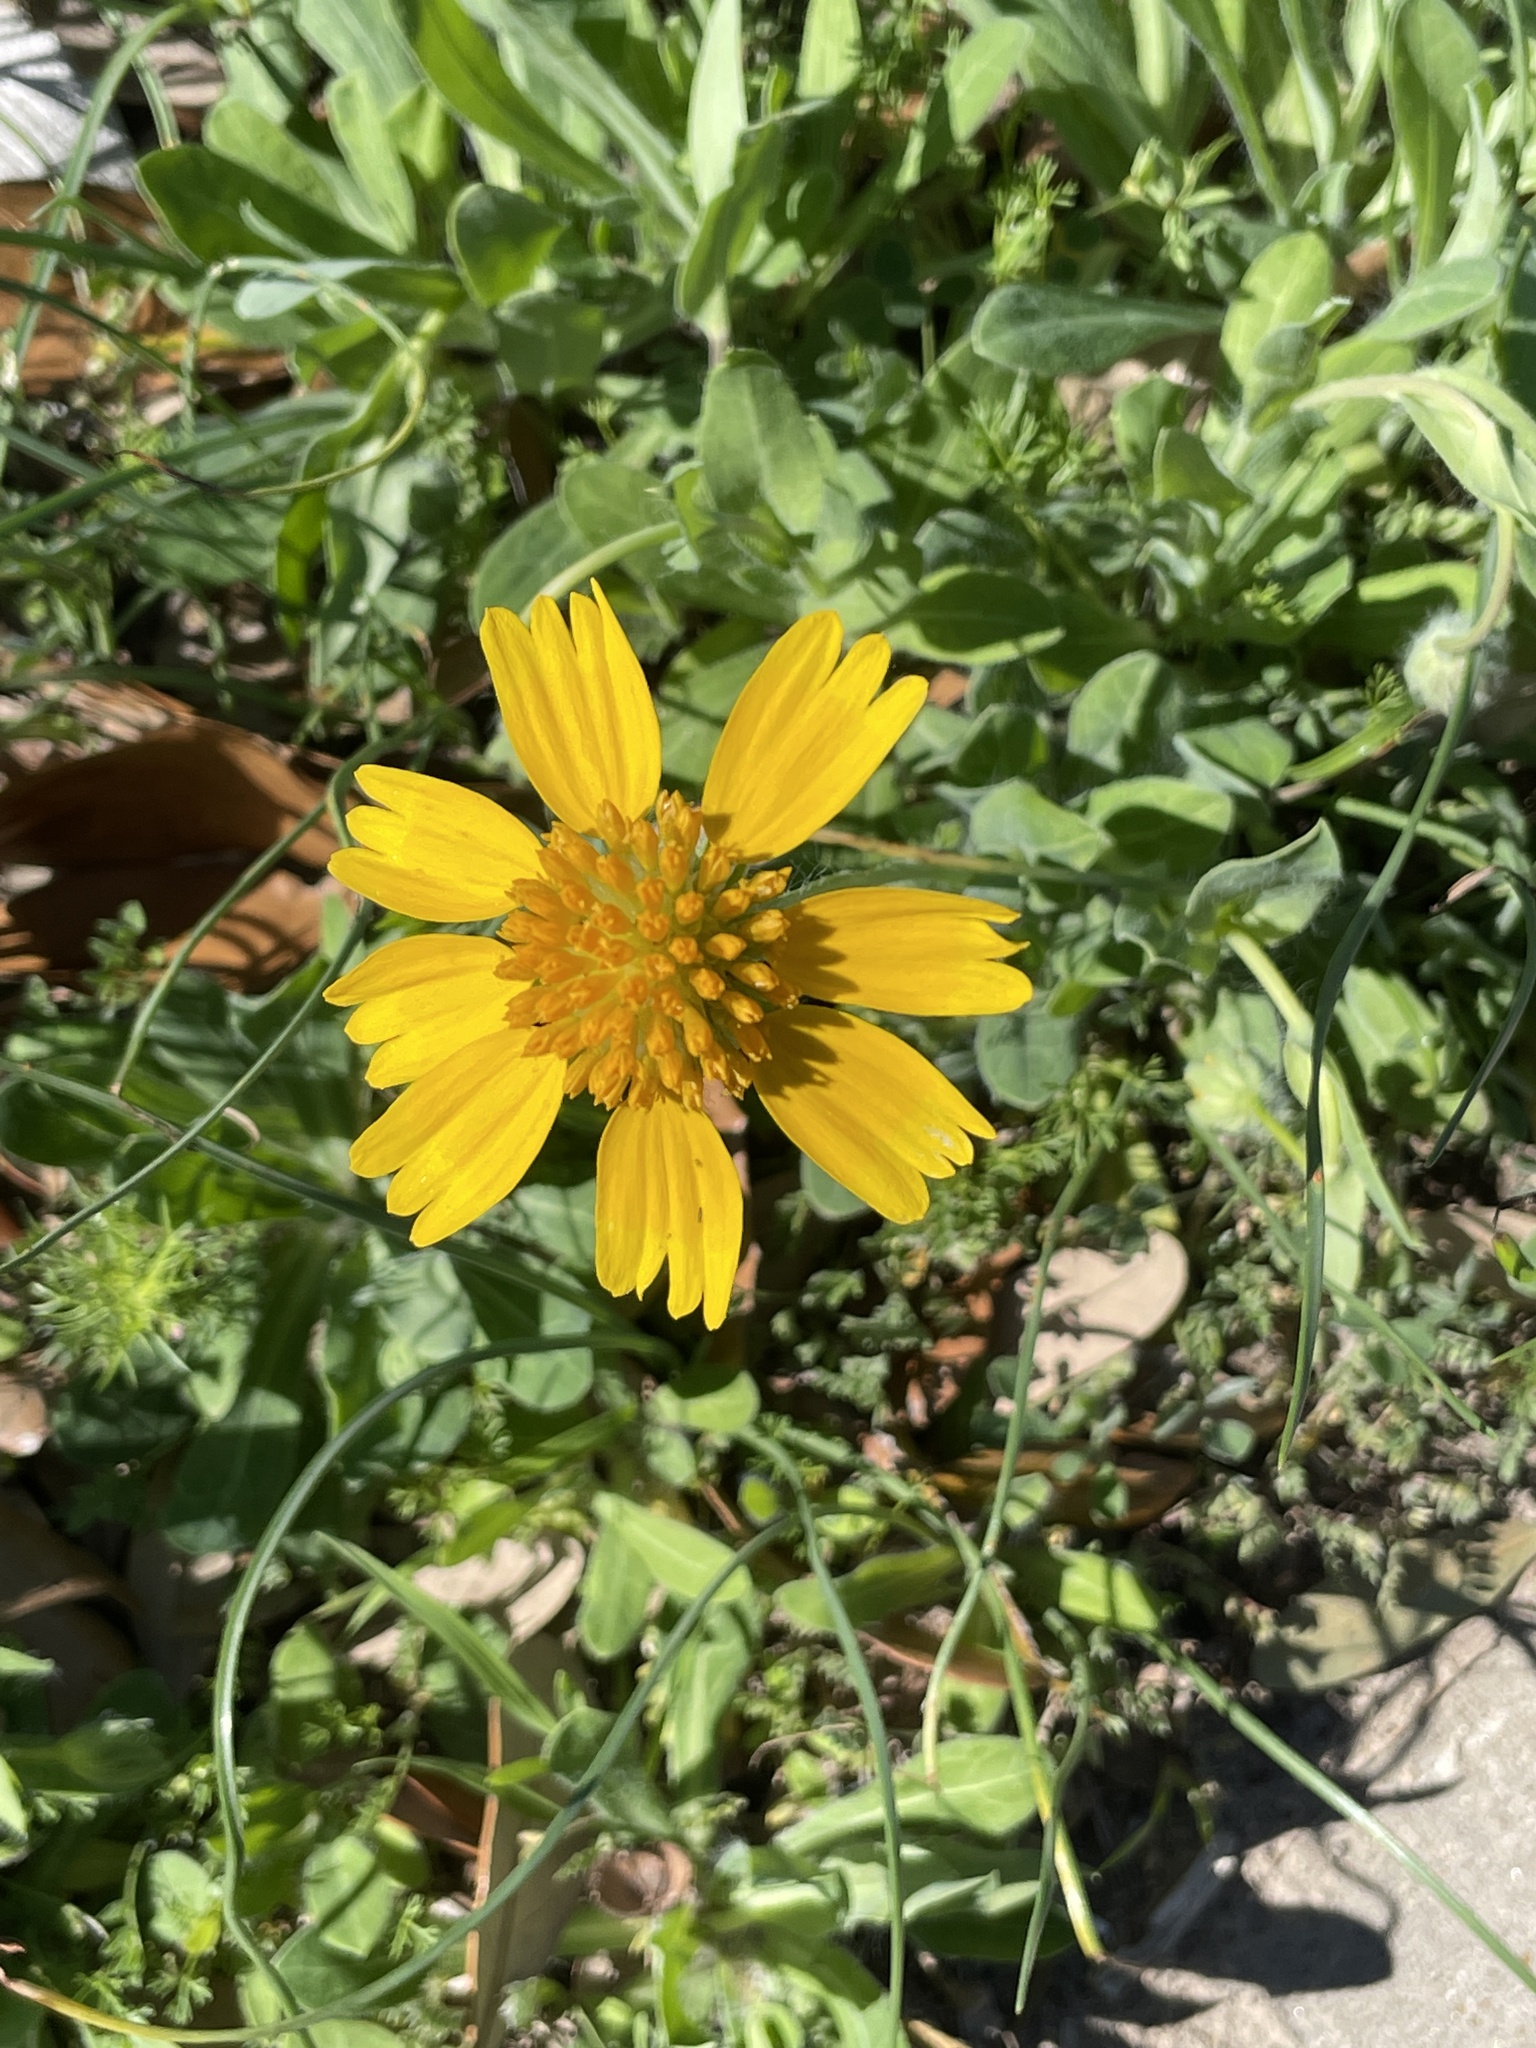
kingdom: Plantae
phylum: Tracheophyta
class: Magnoliopsida
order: Asterales
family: Asteraceae
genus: Amblyolepis
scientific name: Amblyolepis setigera
